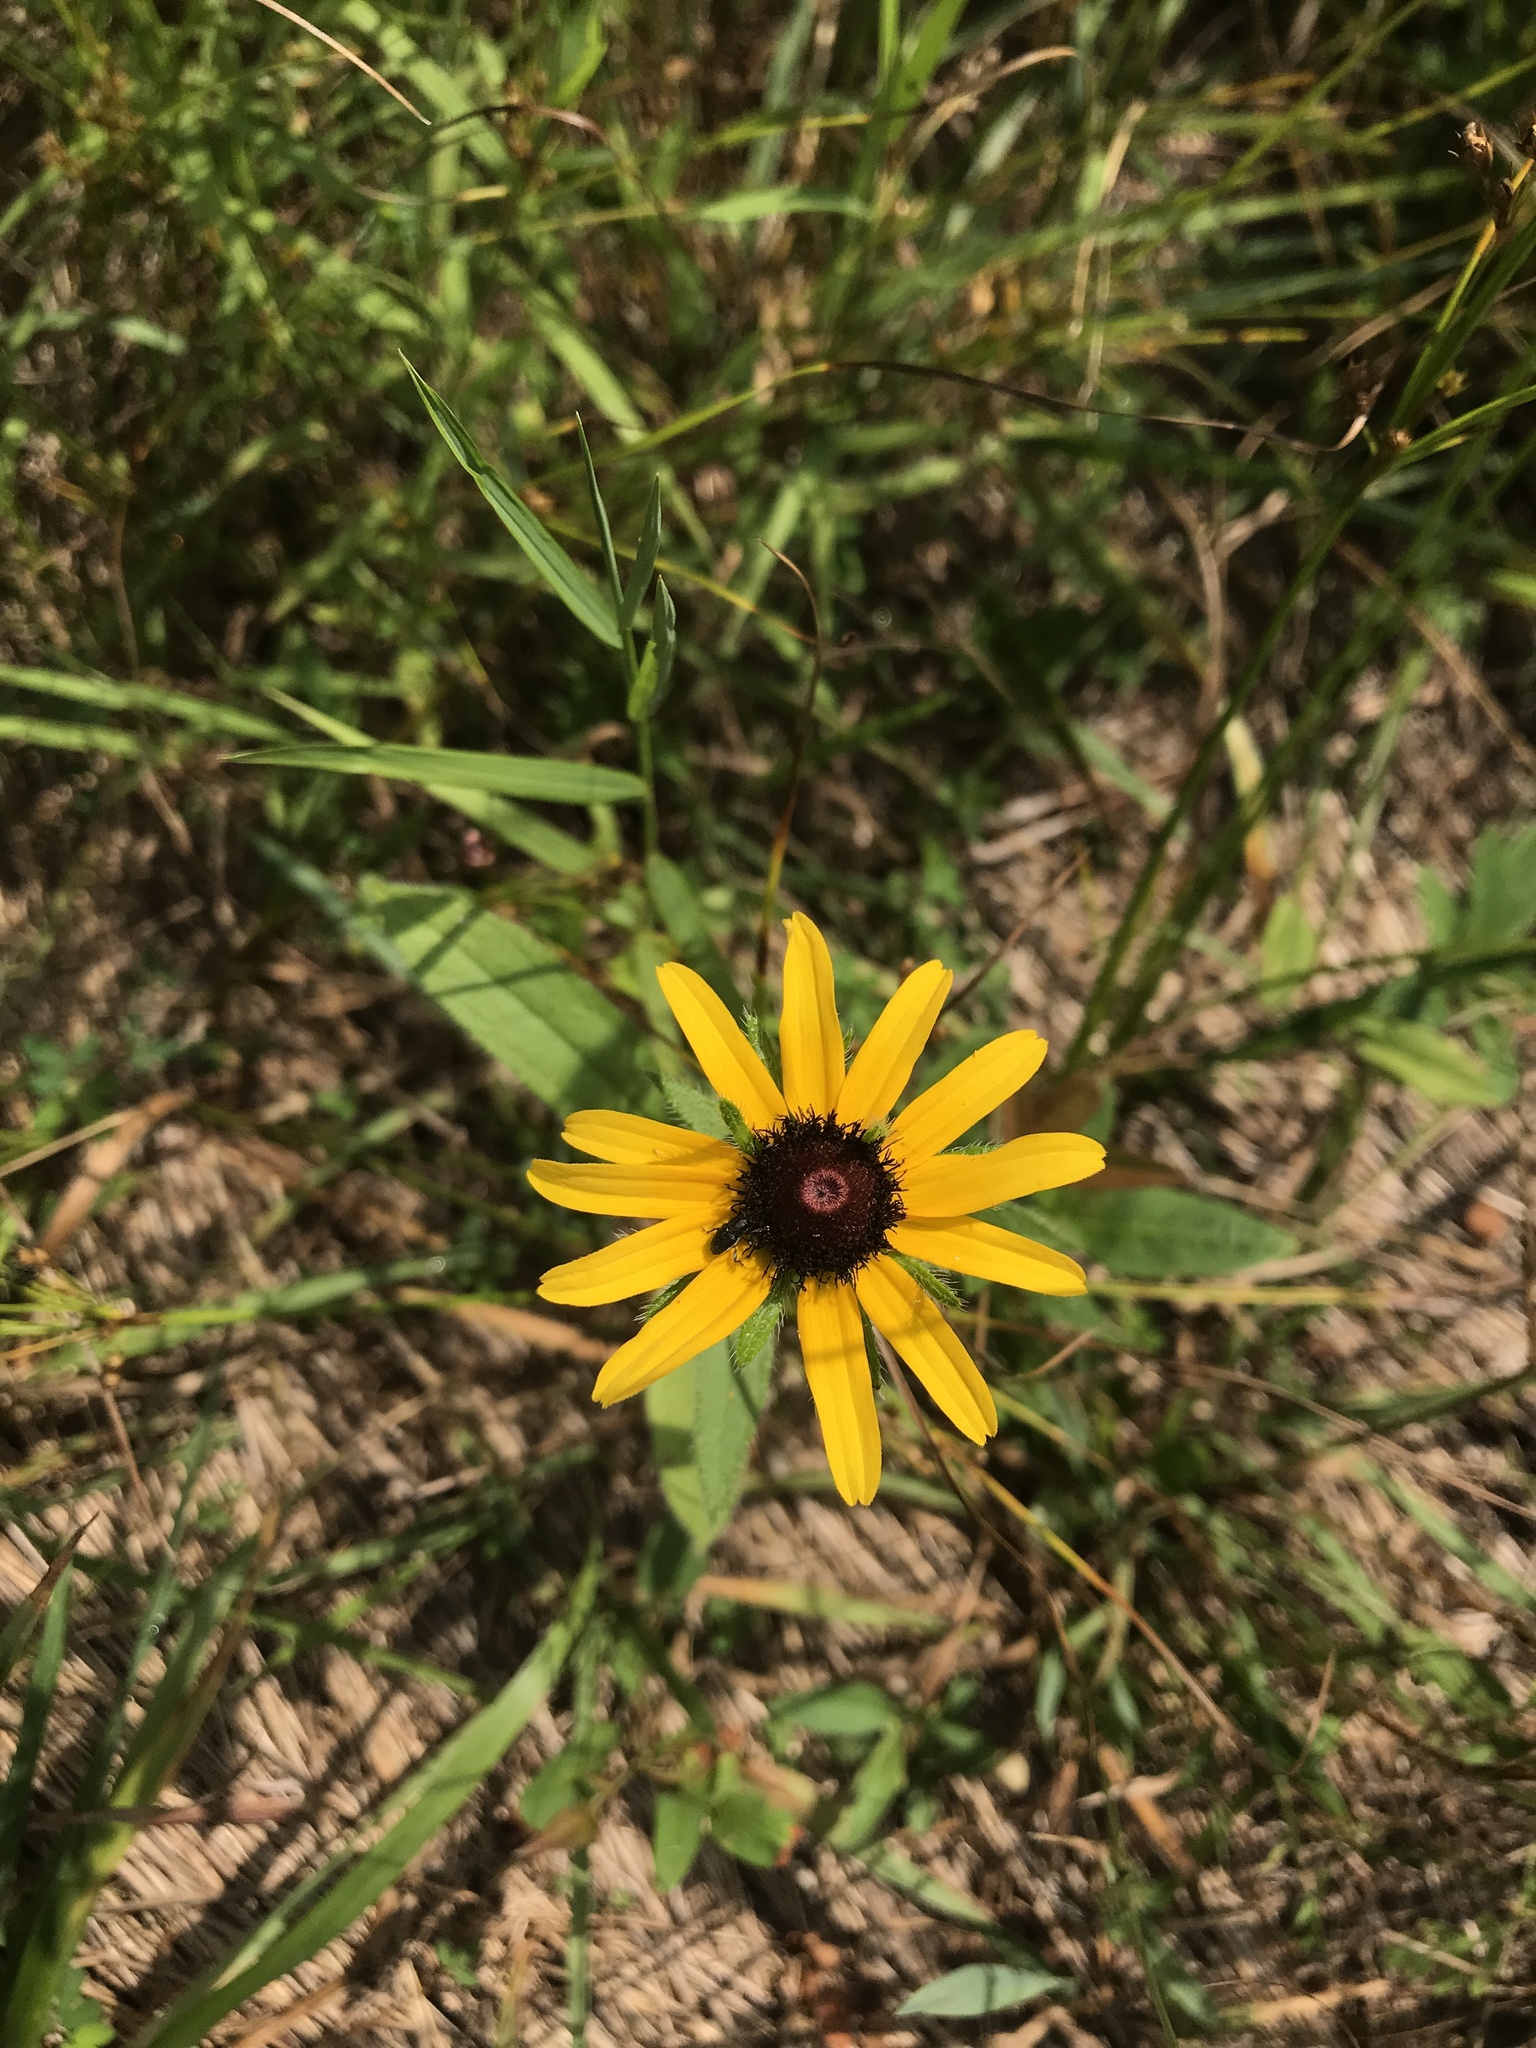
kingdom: Plantae
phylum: Tracheophyta
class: Magnoliopsida
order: Asterales
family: Asteraceae
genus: Rudbeckia
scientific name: Rudbeckia hirta
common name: Black-eyed-susan
